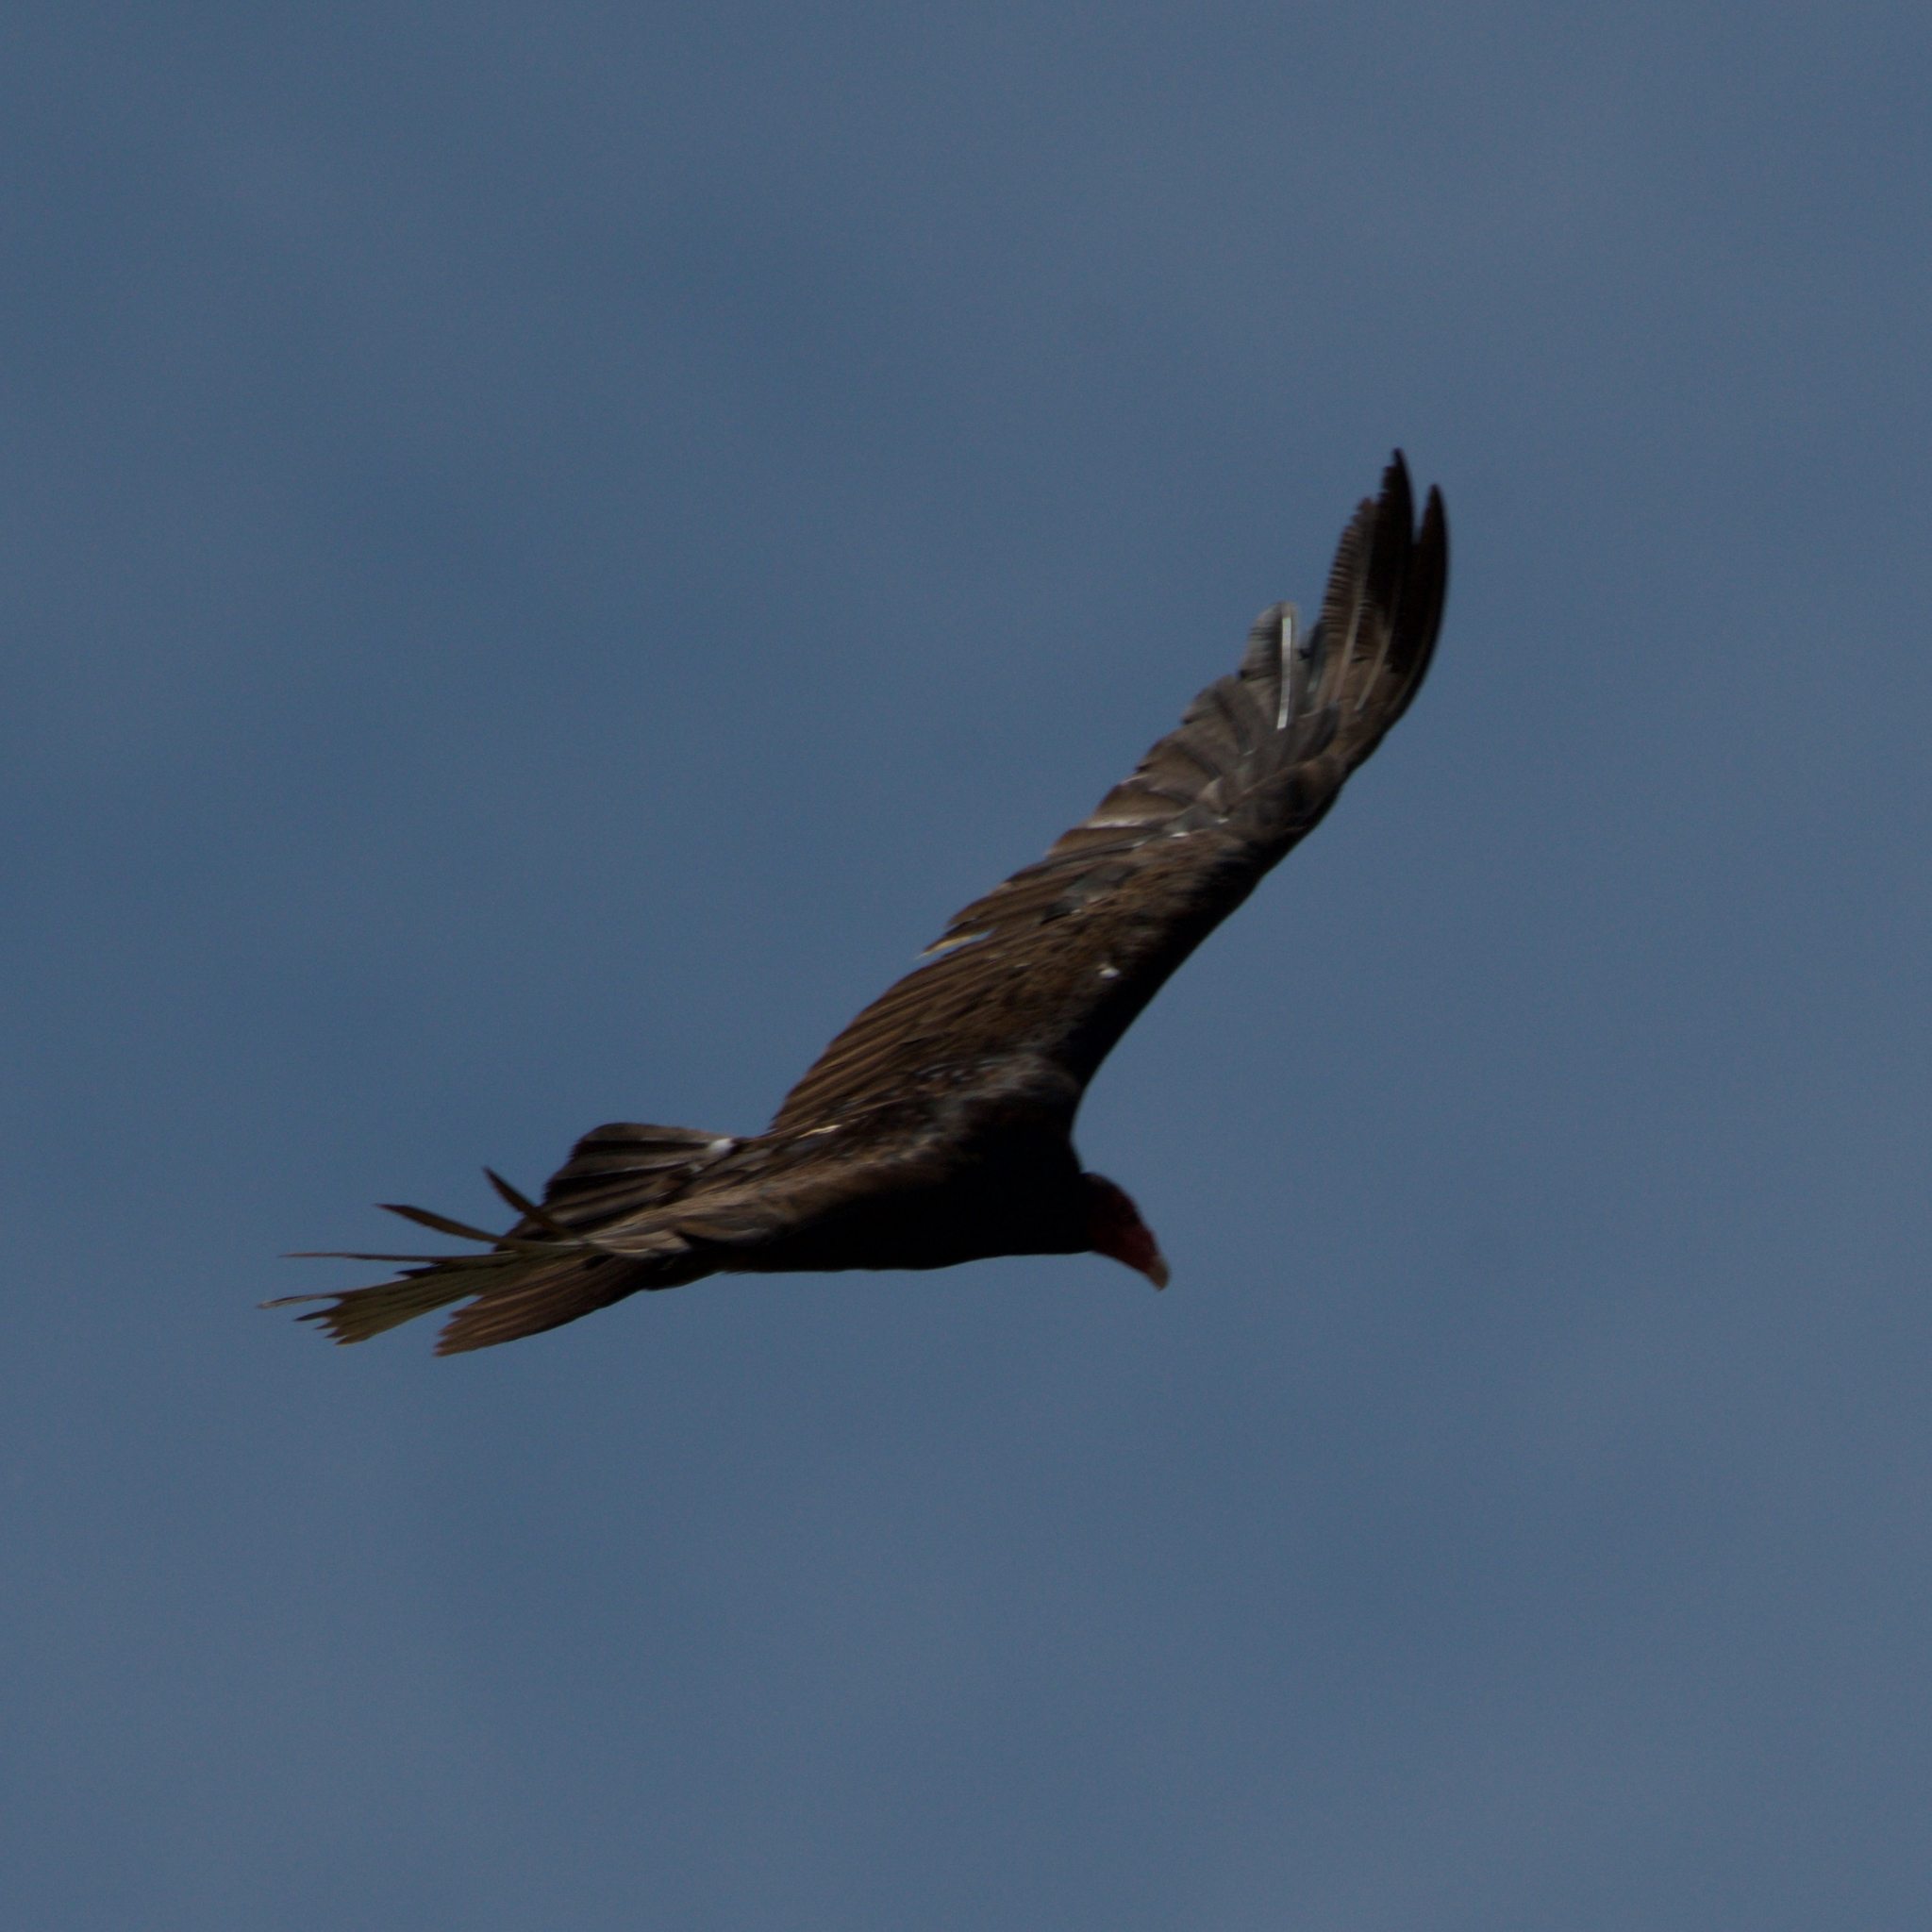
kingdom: Animalia
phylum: Chordata
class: Aves
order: Accipitriformes
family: Cathartidae
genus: Cathartes
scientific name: Cathartes aura
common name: Turkey vulture
